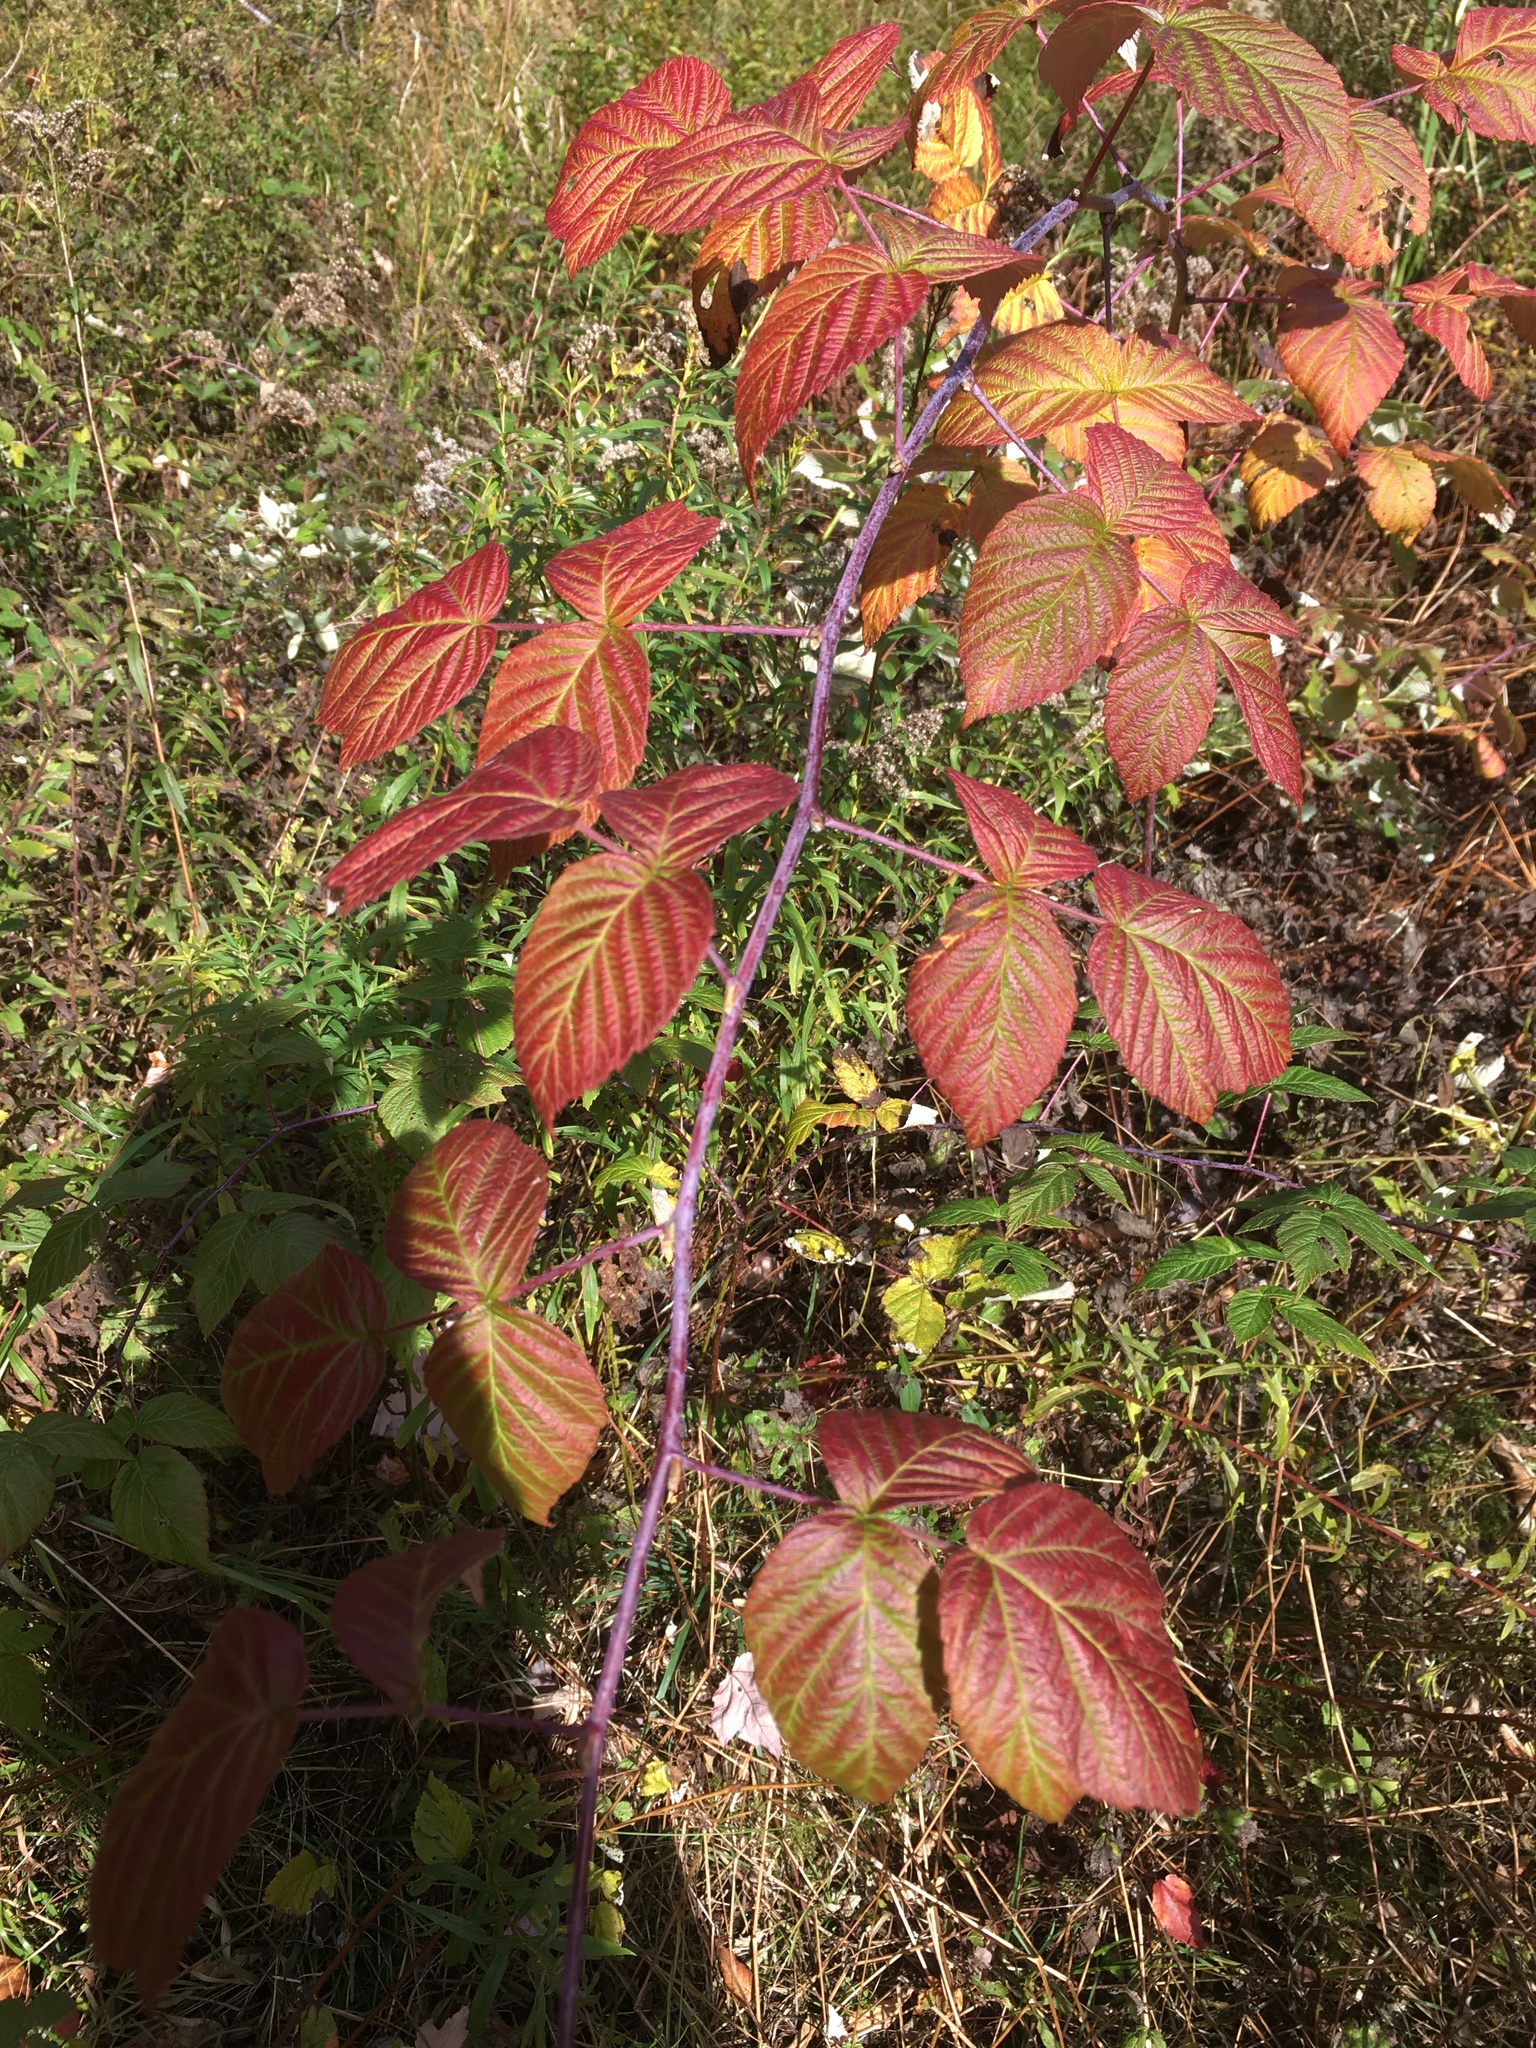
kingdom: Plantae
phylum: Tracheophyta
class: Magnoliopsida
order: Rosales
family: Rosaceae
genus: Rubus
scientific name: Rubus occidentalis
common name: Black raspberry
